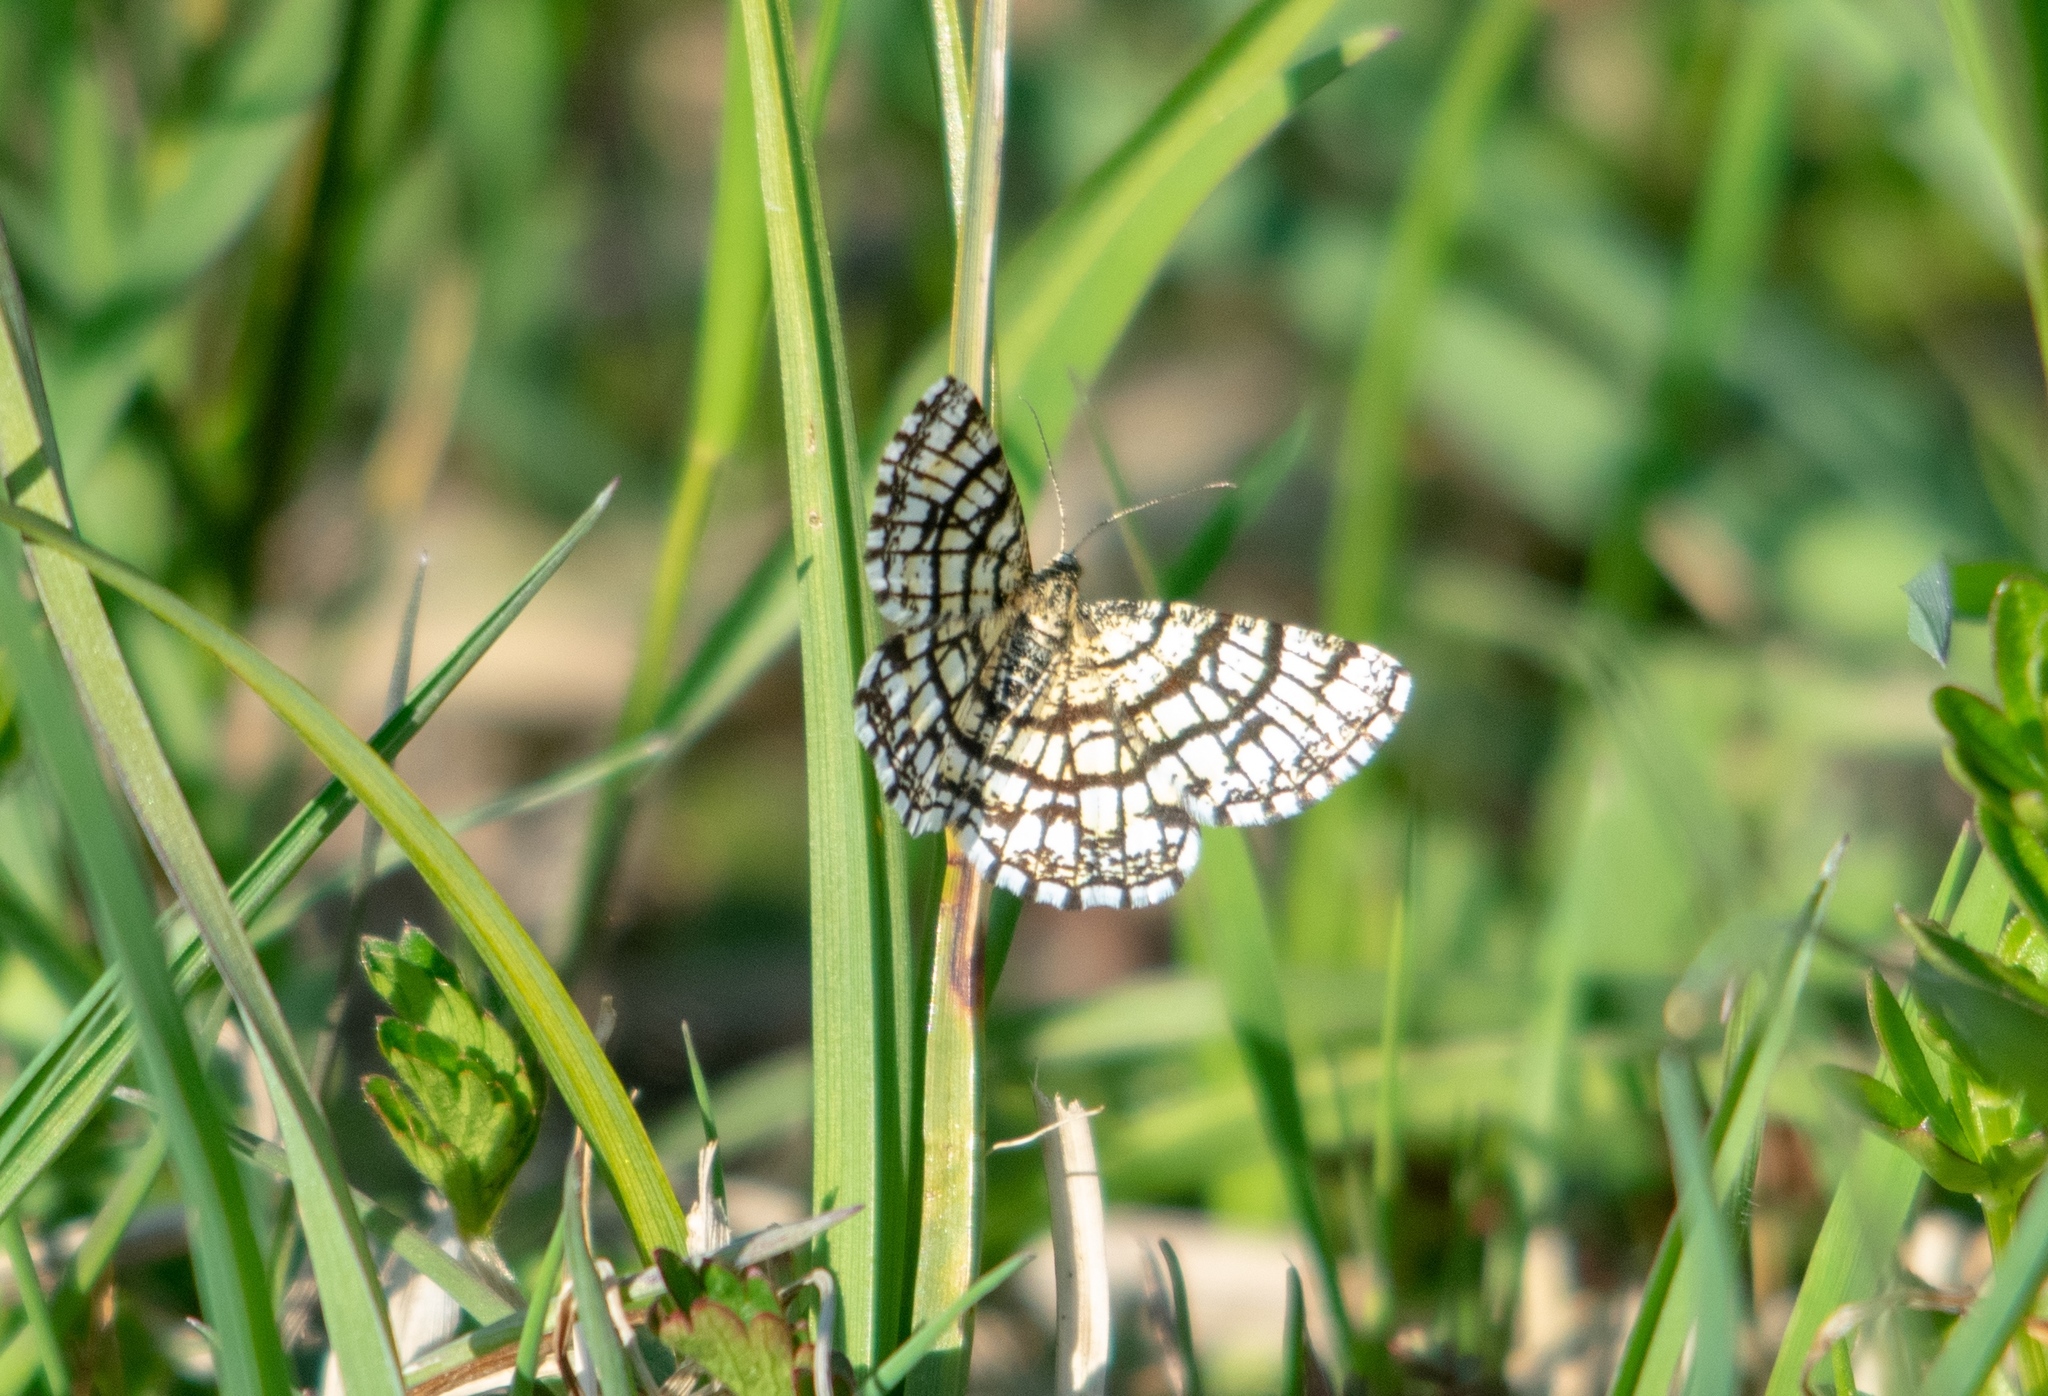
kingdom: Animalia
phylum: Arthropoda
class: Insecta
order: Lepidoptera
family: Geometridae
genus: Chiasmia
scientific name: Chiasmia clathrata
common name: Latticed heath
